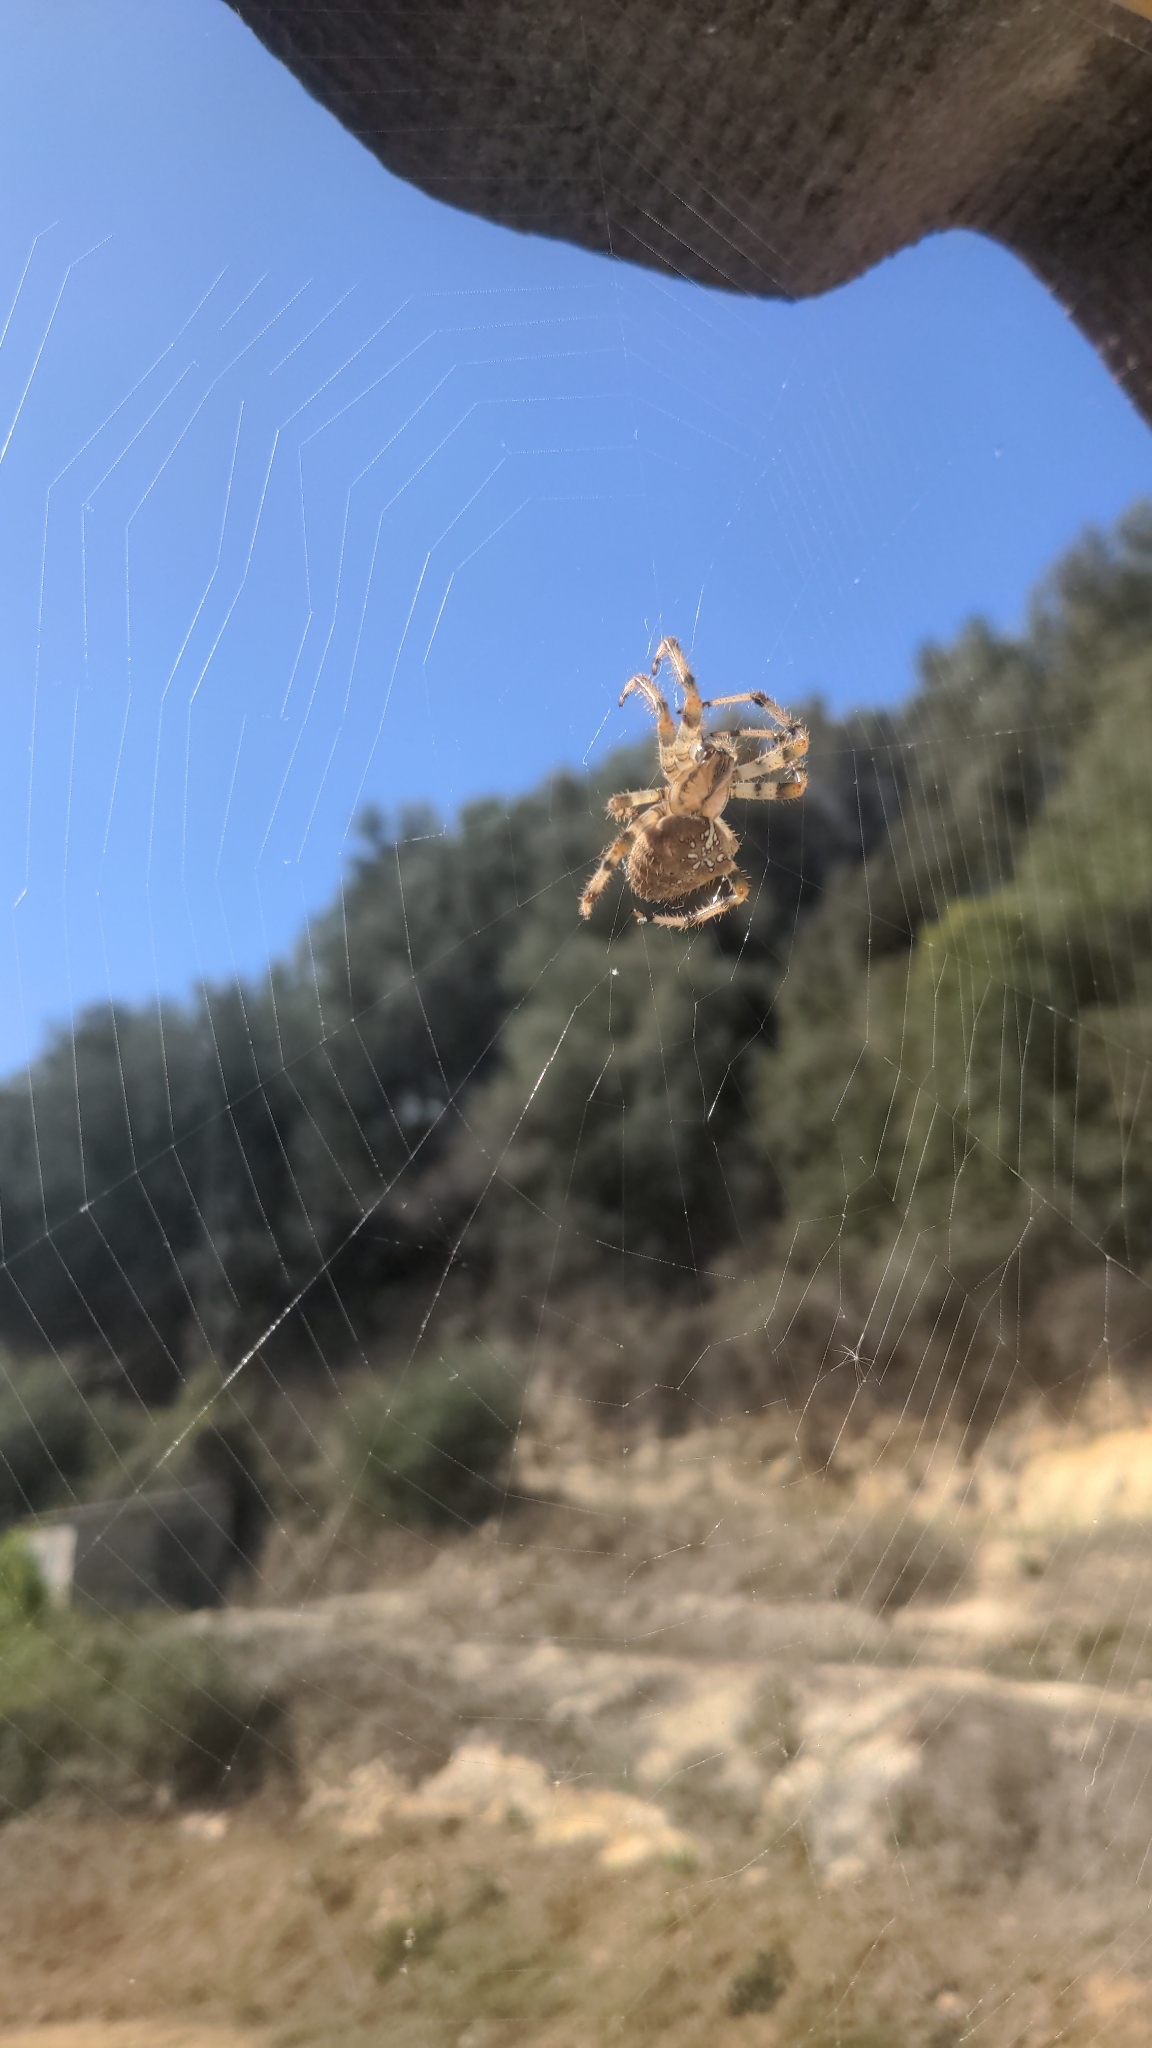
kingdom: Animalia
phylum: Arthropoda
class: Arachnida
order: Araneae
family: Araneidae
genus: Araneus
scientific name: Araneus pallidus
